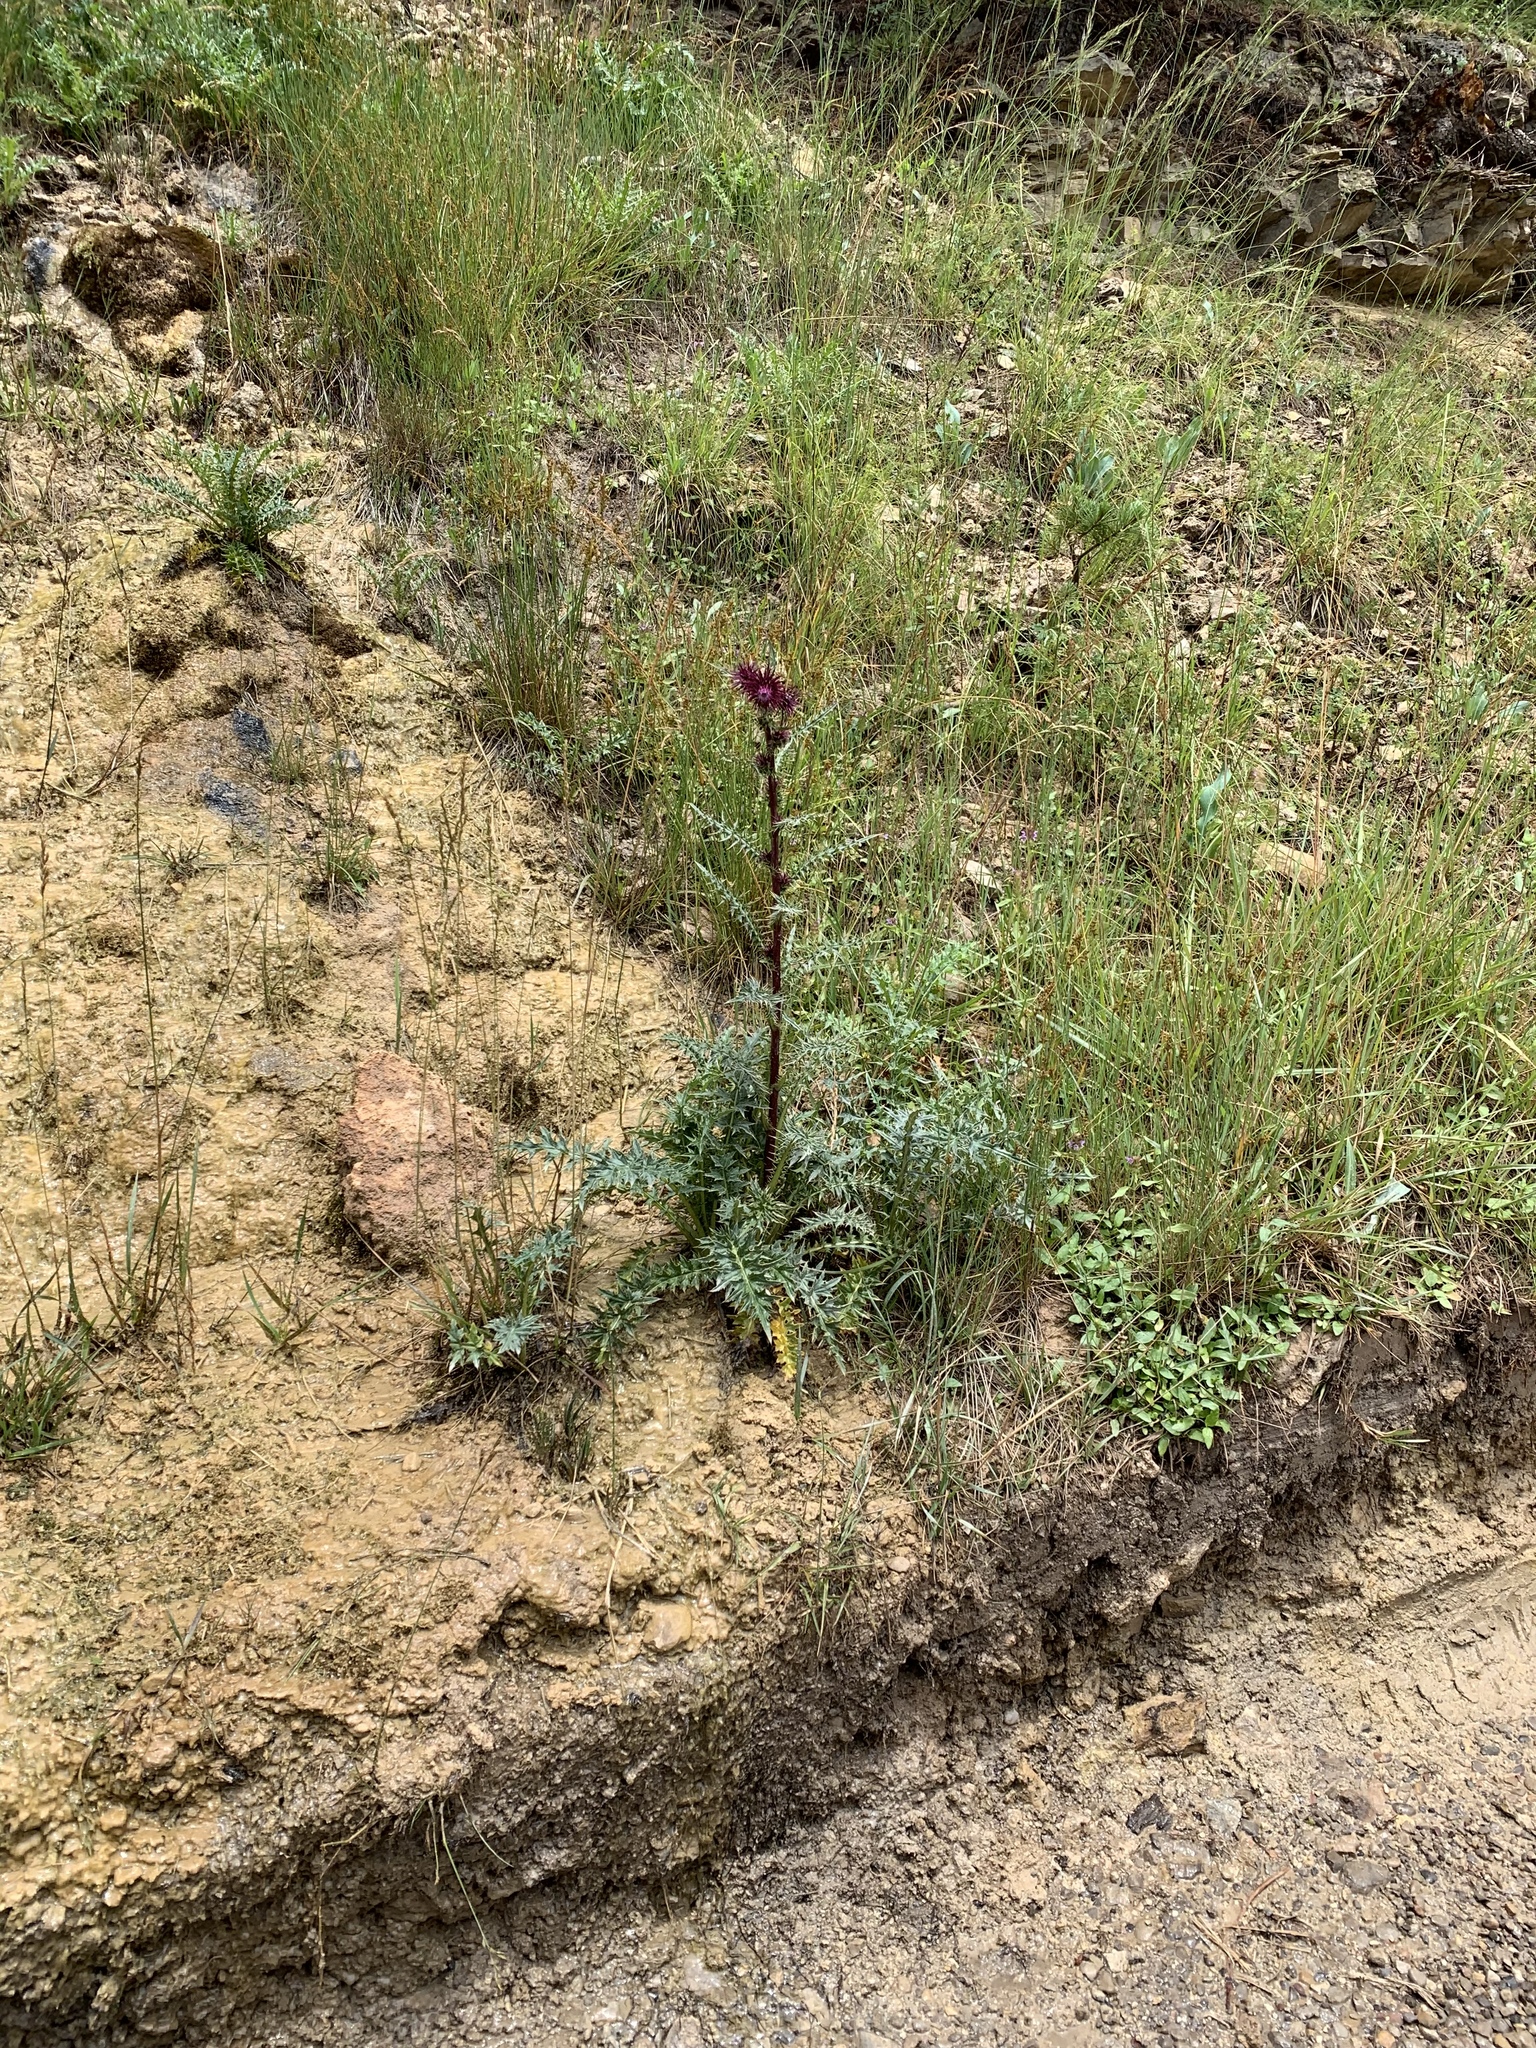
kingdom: Plantae
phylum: Tracheophyta
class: Magnoliopsida
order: Asterales
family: Asteraceae
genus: Cirsium
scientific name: Cirsium vinaceum
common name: Sacramento mountain thistle
